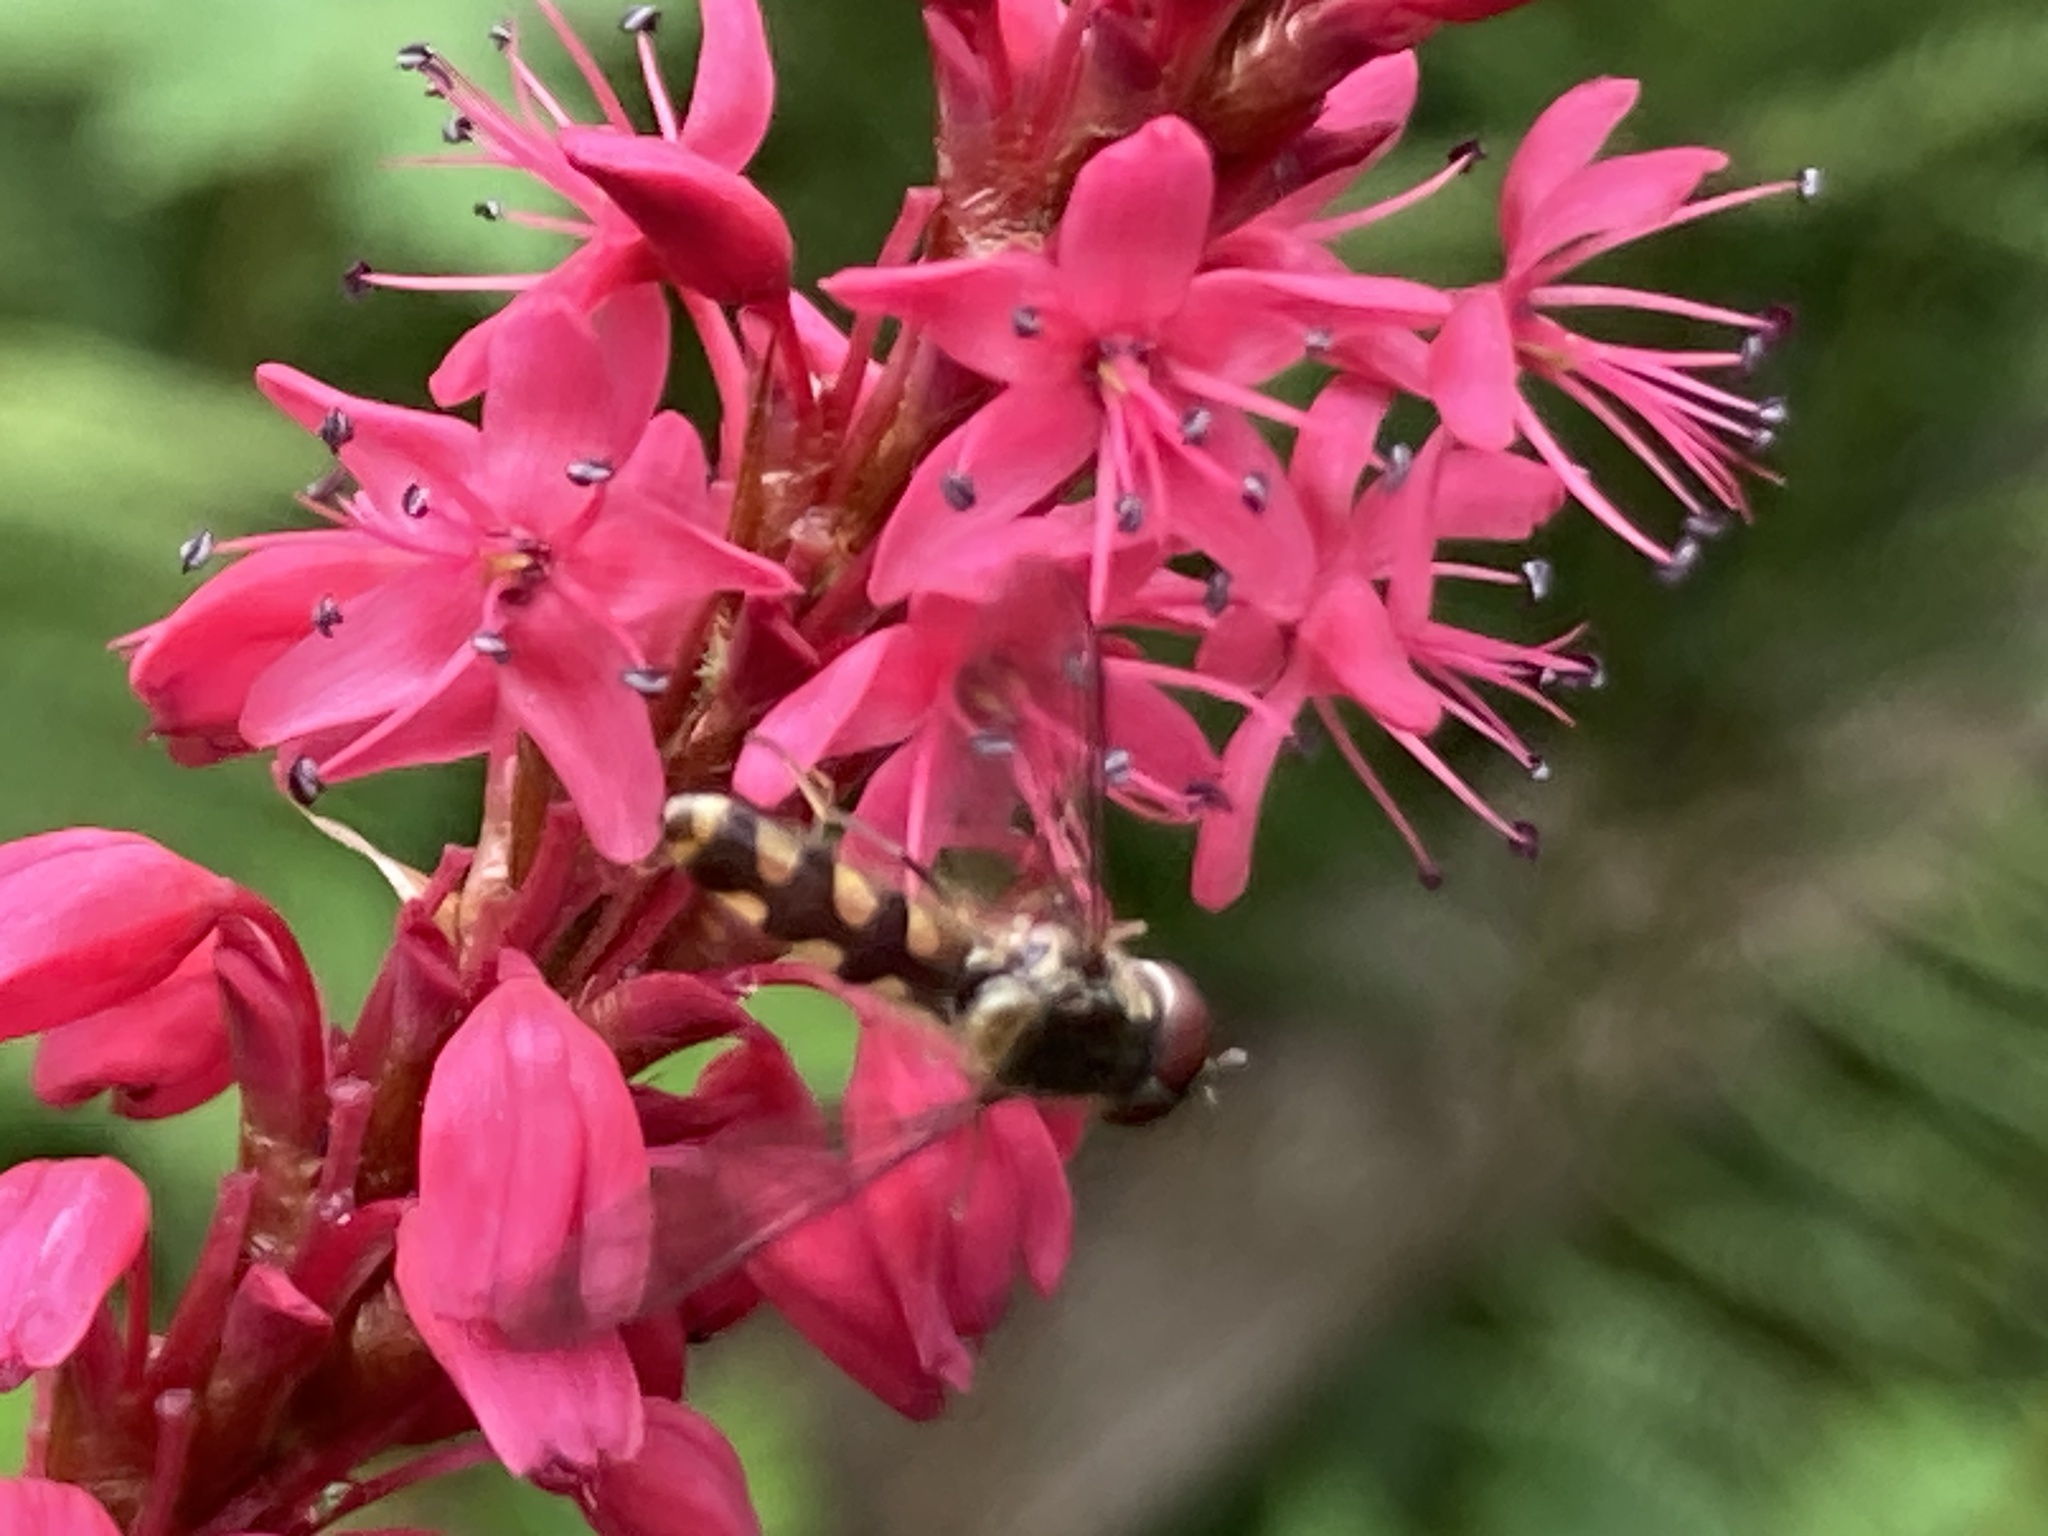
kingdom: Animalia
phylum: Arthropoda
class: Insecta
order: Diptera
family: Syrphidae
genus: Meliscaeva
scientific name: Meliscaeva auricollis
